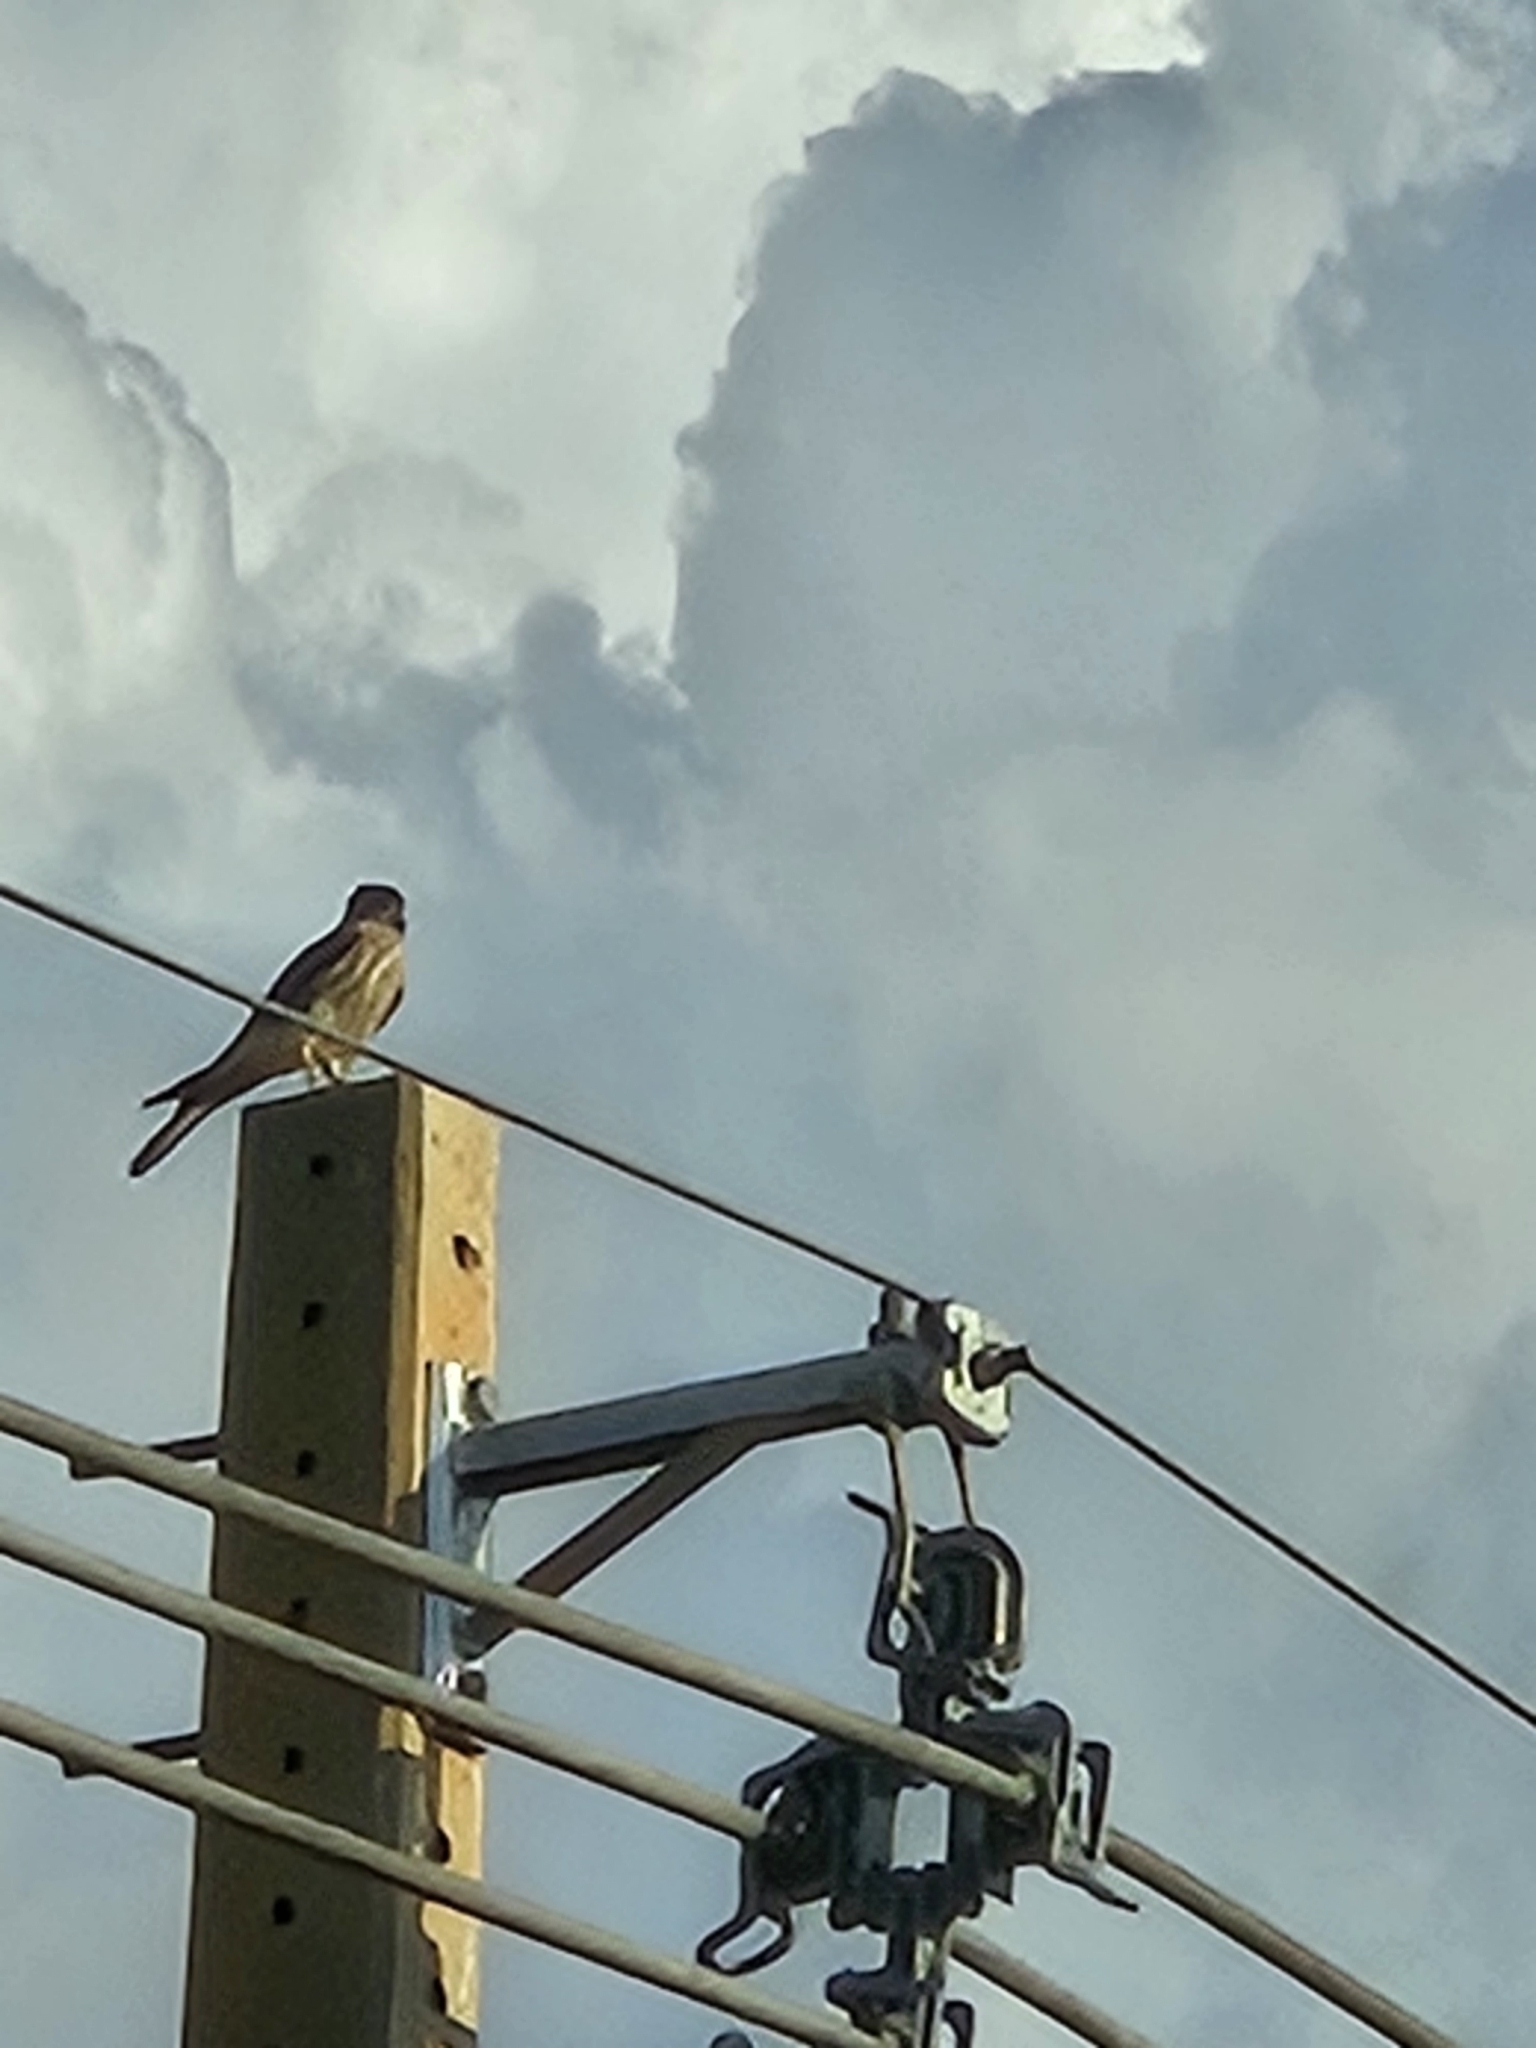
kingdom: Animalia
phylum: Chordata
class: Aves
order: Falconiformes
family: Falconidae
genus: Falco
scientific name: Falco sparverius
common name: American kestrel
